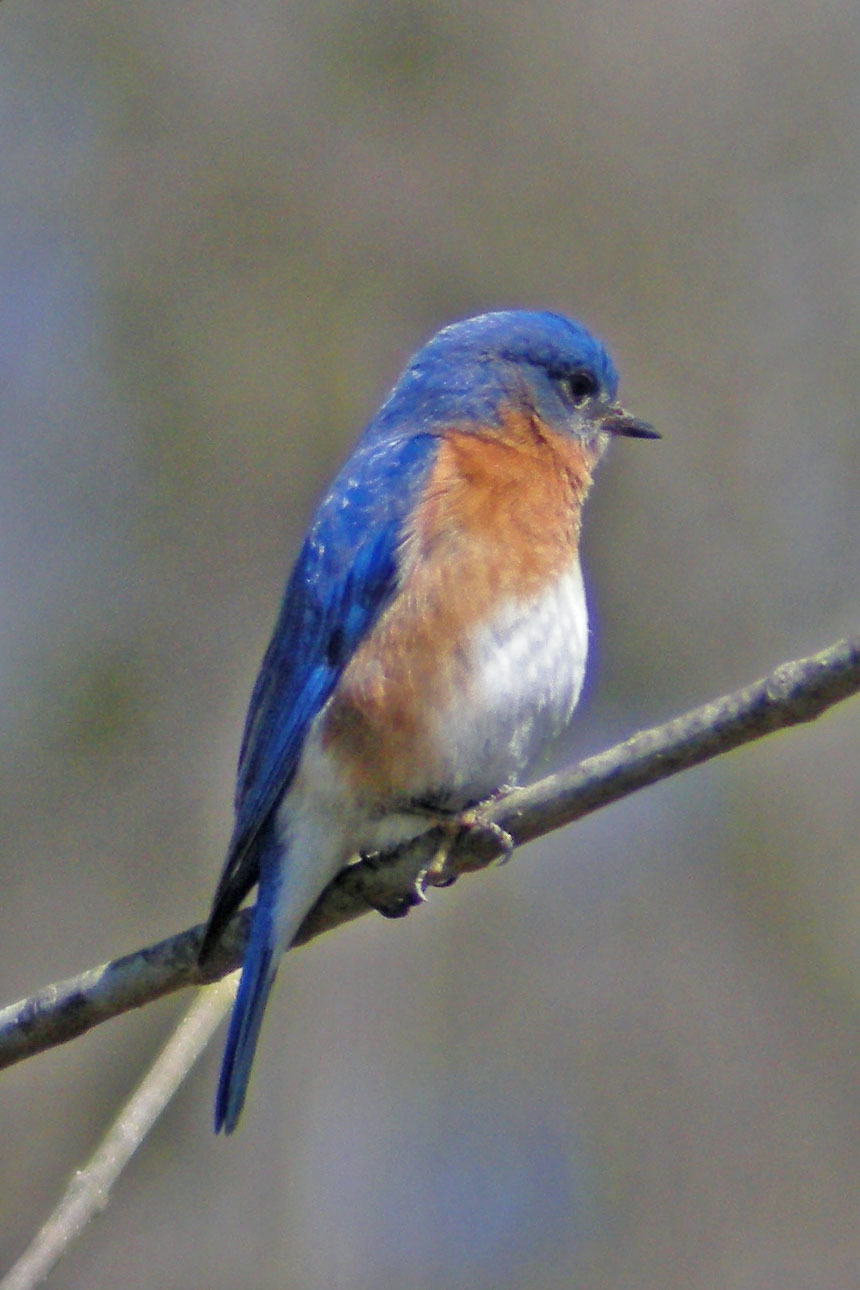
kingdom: Animalia
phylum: Chordata
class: Aves
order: Passeriformes
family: Turdidae
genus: Sialia
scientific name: Sialia sialis
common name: Eastern bluebird
